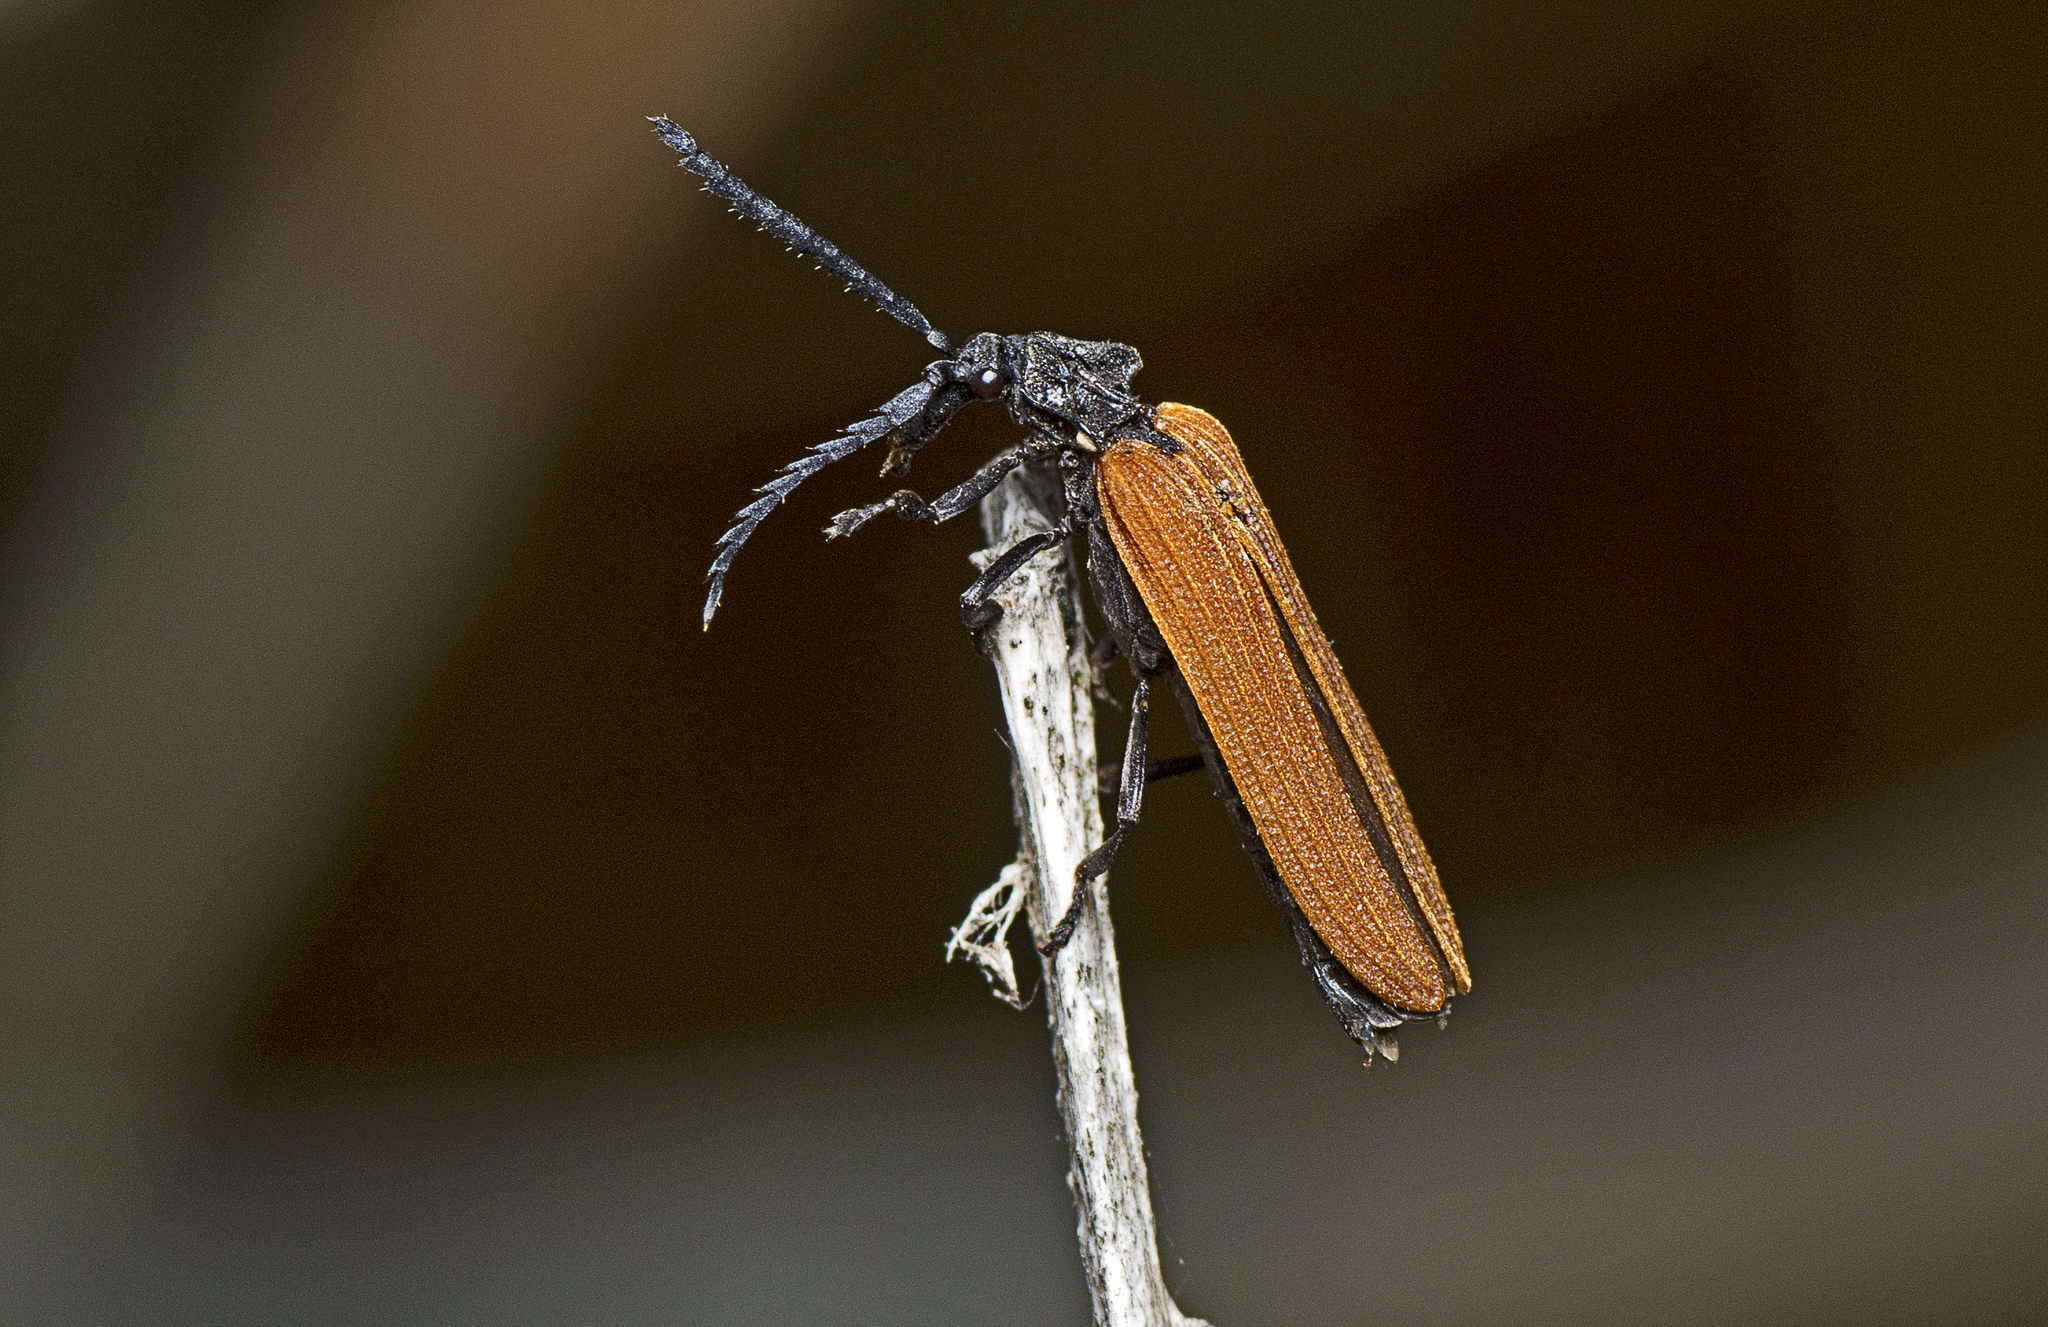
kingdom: Animalia
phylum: Arthropoda
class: Insecta
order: Coleoptera
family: Lycidae
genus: Porrostoma
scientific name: Porrostoma rhipidium
